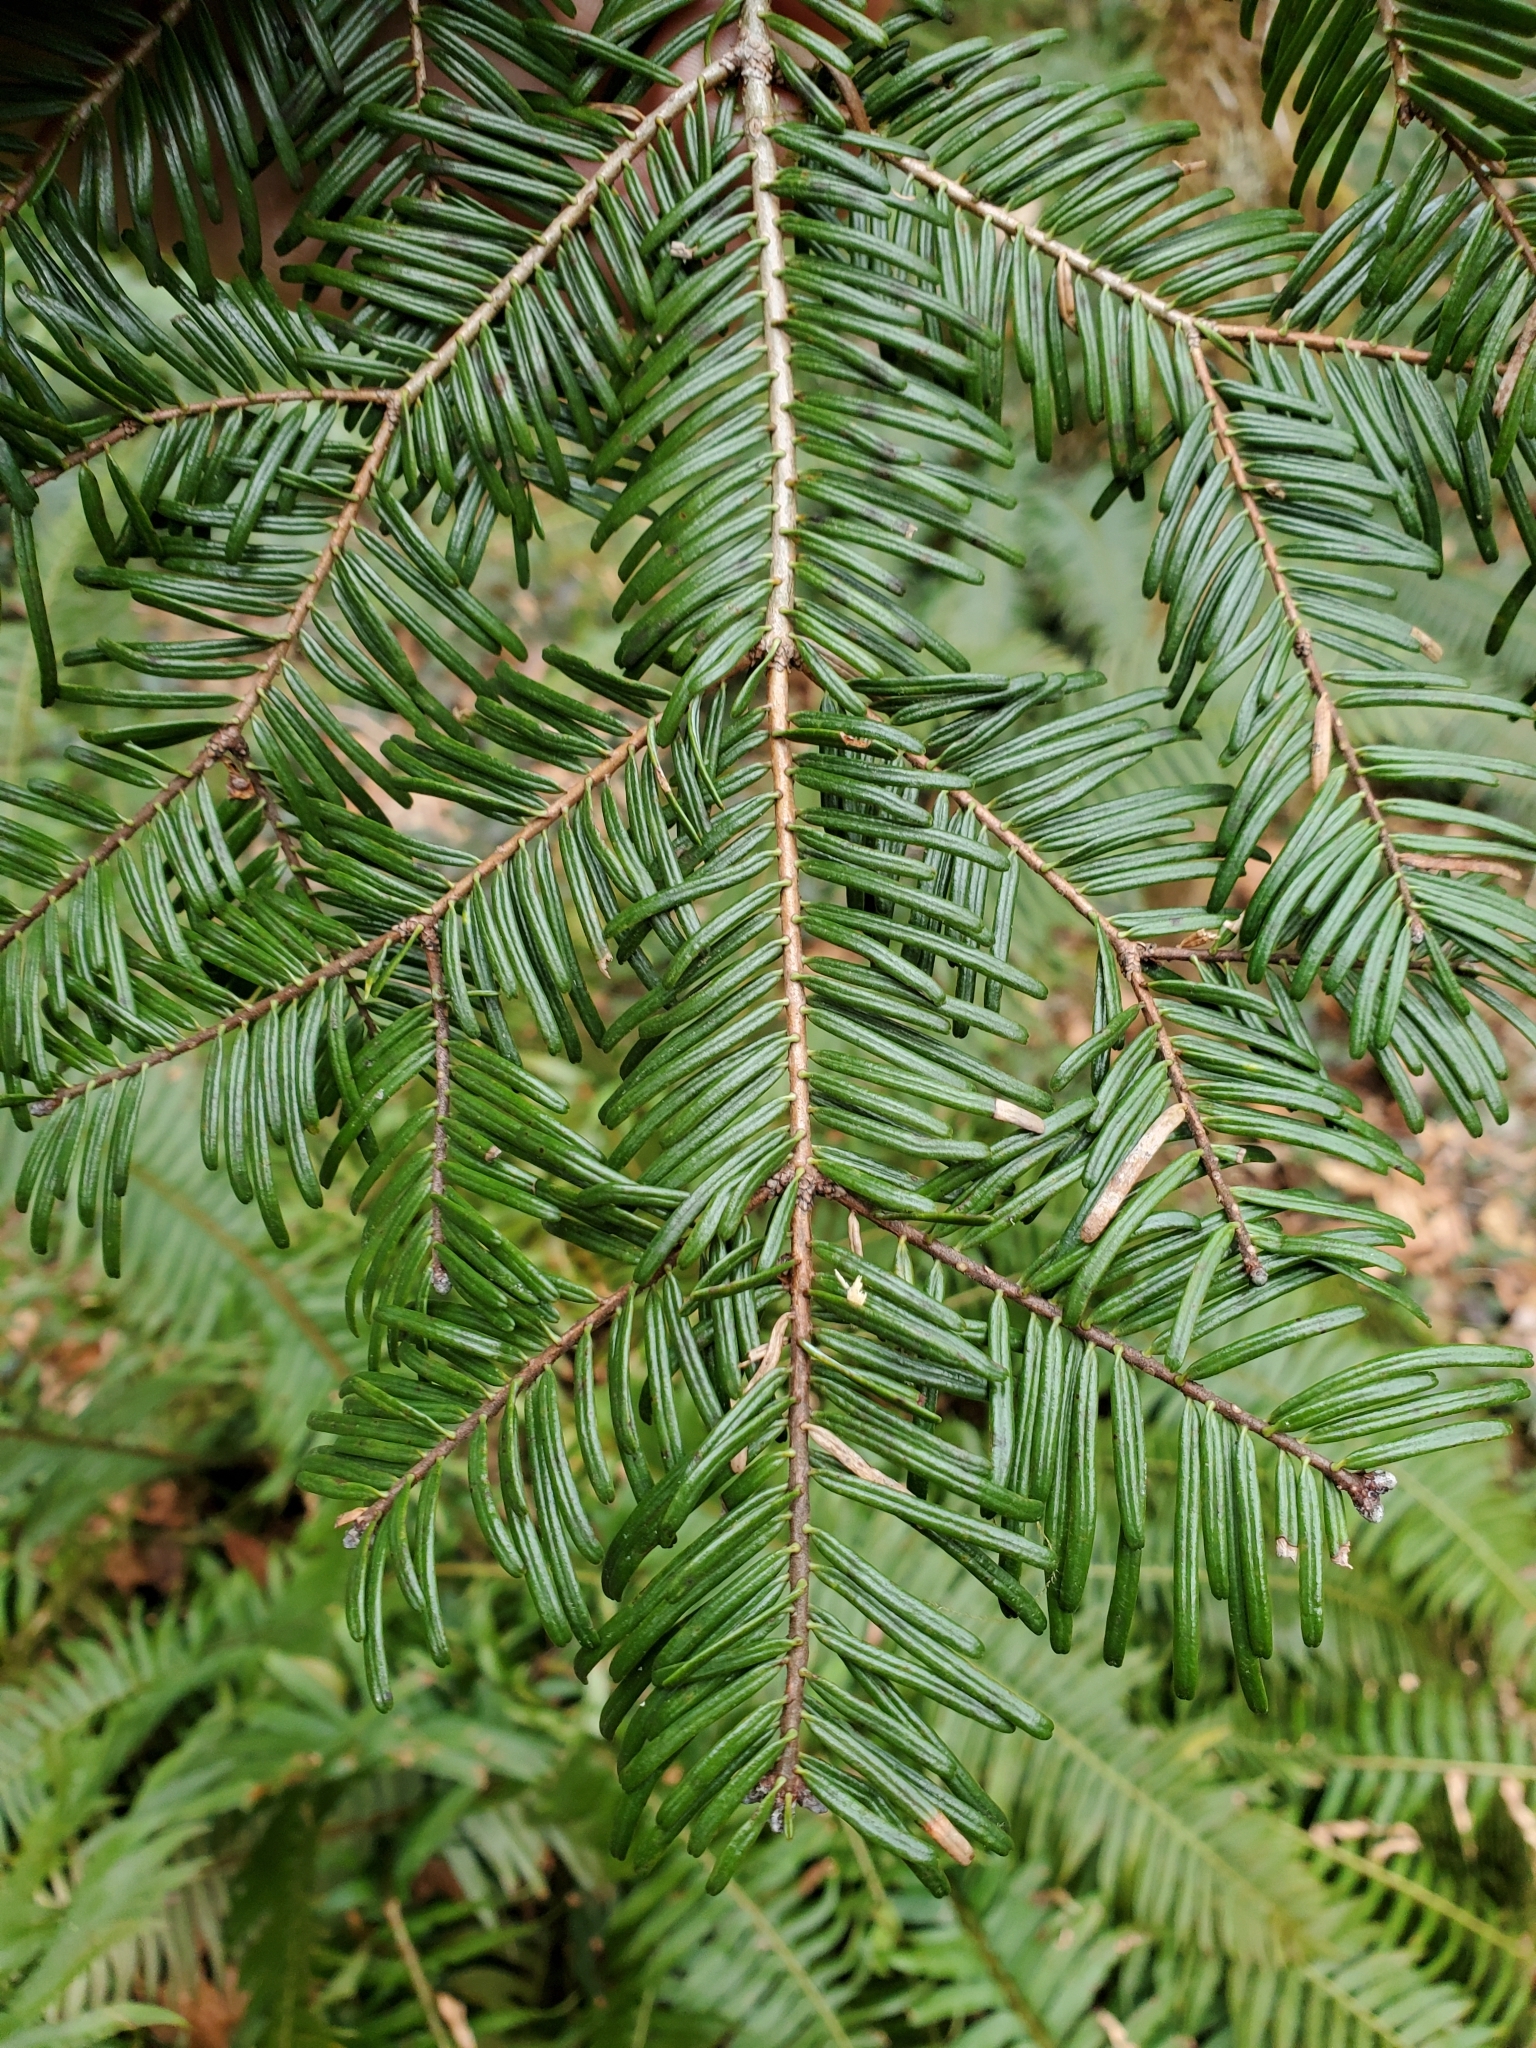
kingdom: Plantae
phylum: Tracheophyta
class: Pinopsida
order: Pinales
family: Pinaceae
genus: Abies
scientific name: Abies grandis
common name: Giant fir
